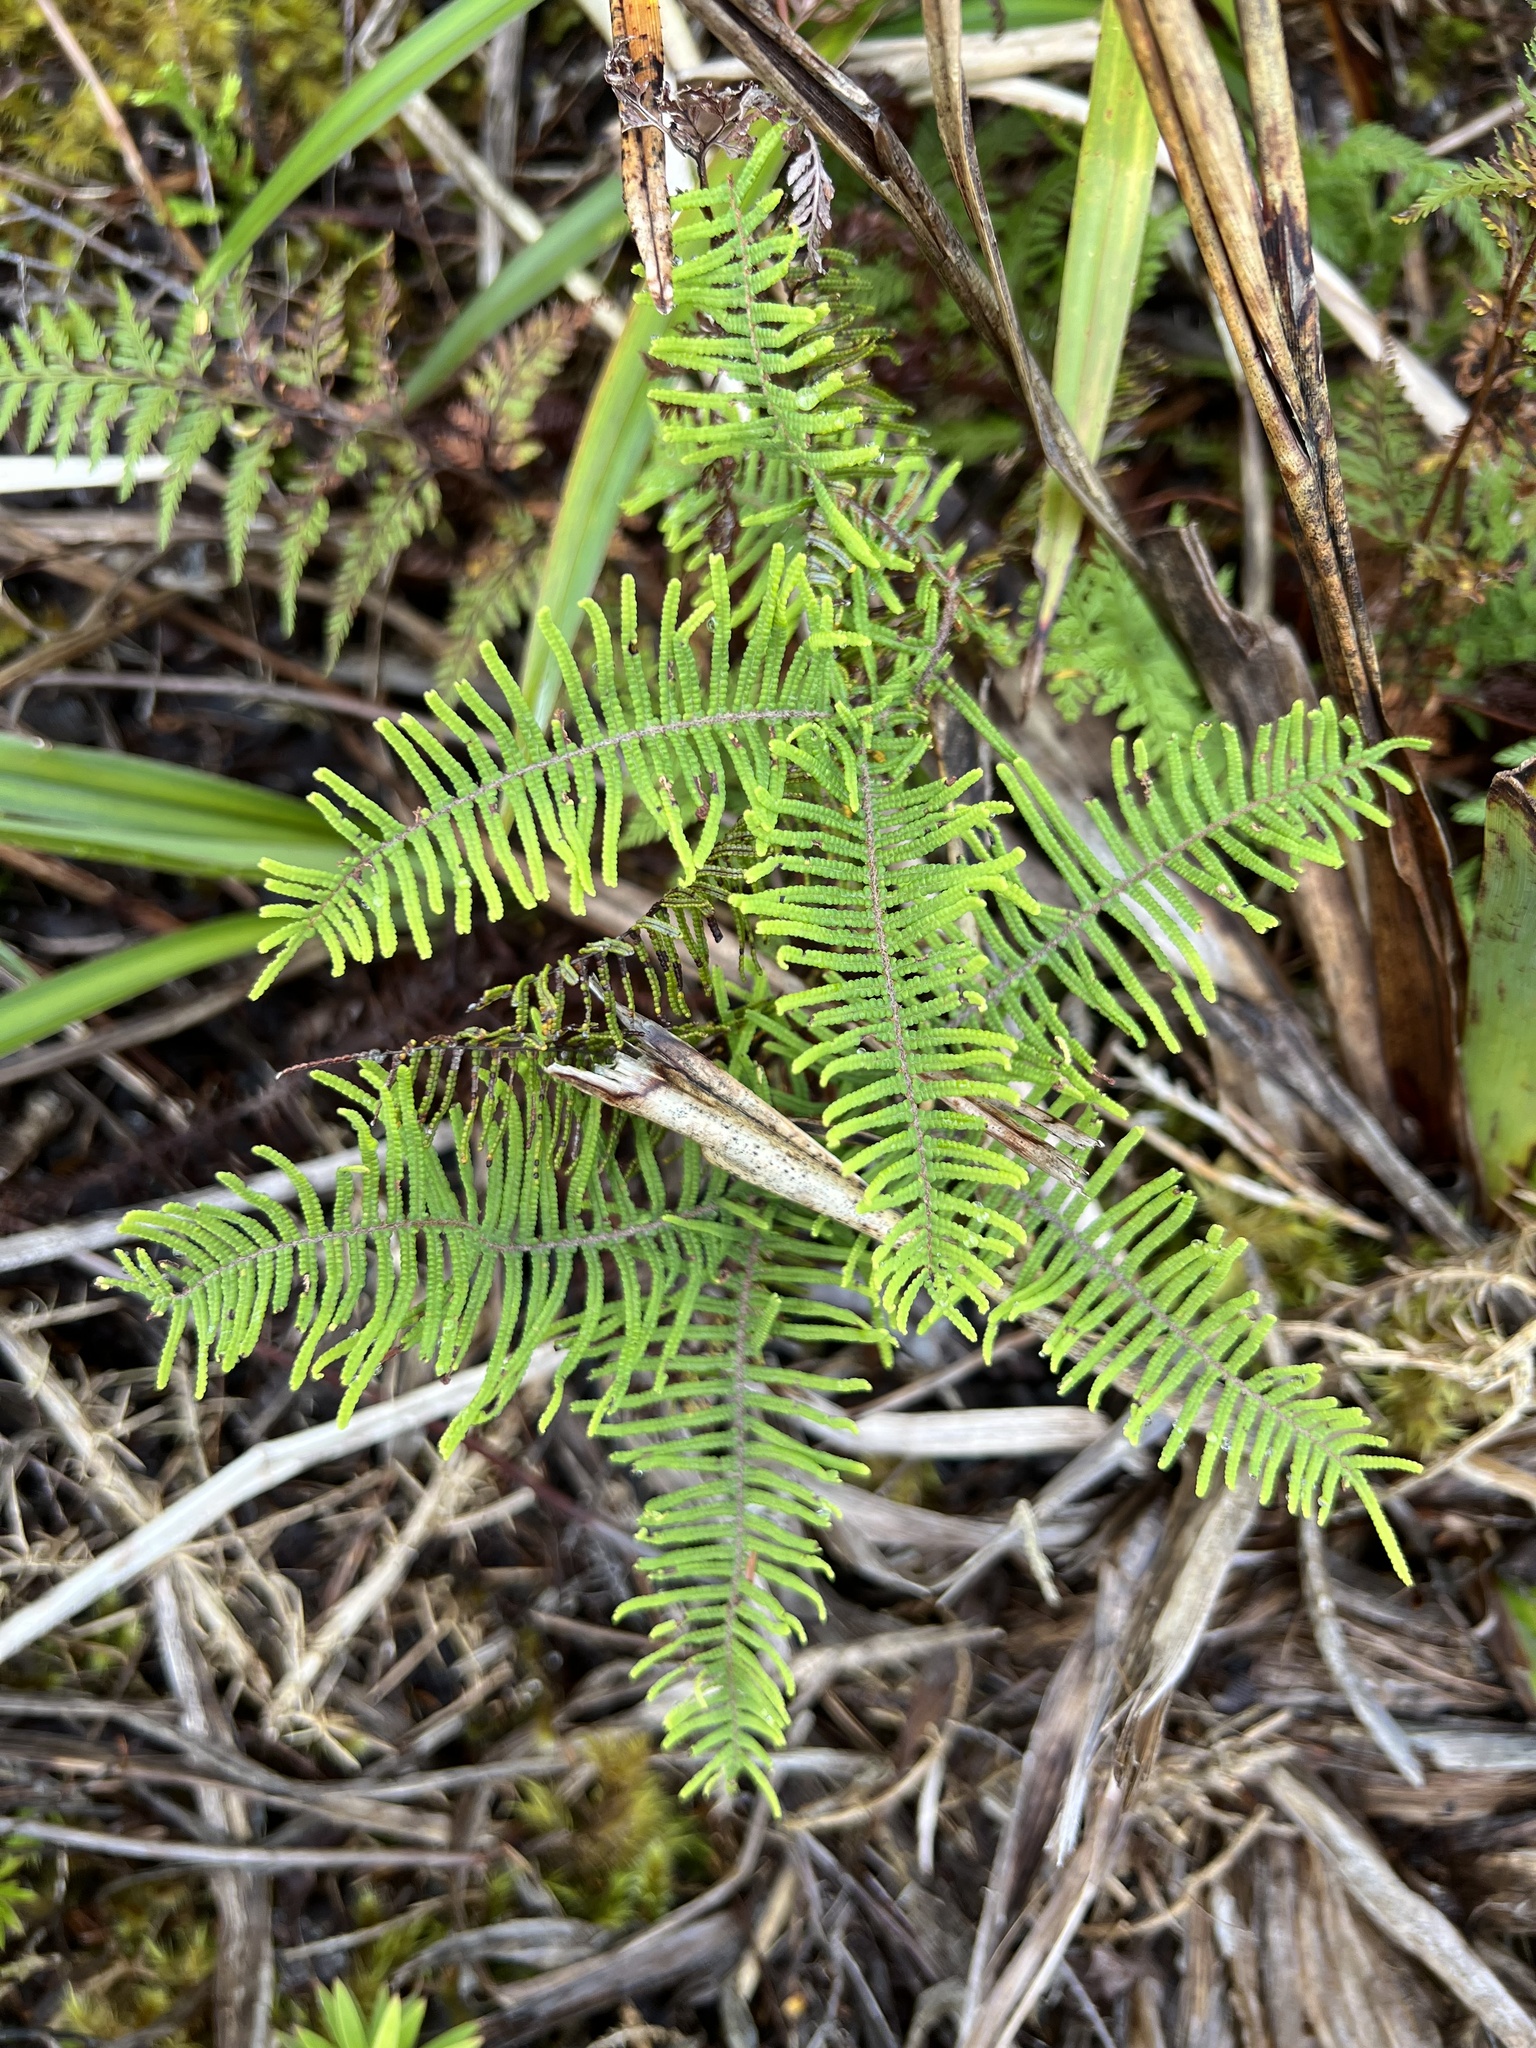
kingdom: Plantae
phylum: Tracheophyta
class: Polypodiopsida
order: Gleicheniales
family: Gleicheniaceae
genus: Gleichenia
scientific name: Gleichenia dicarpa
